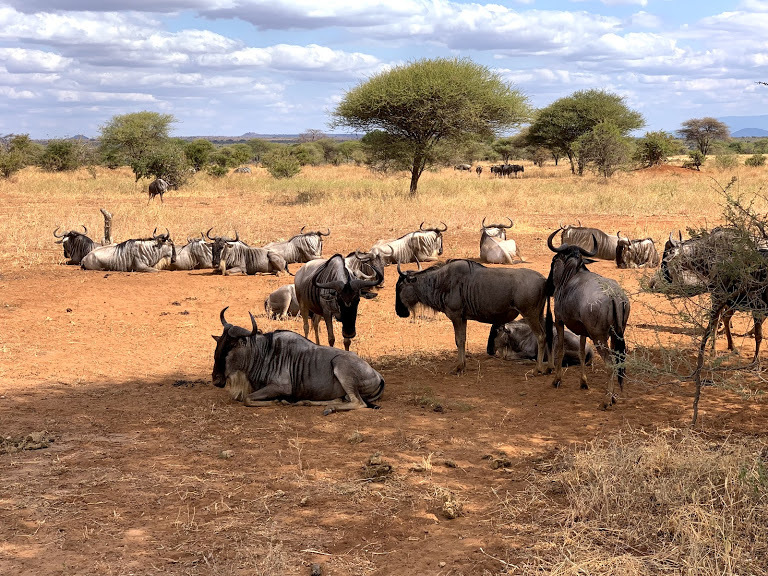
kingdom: Animalia
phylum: Chordata
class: Mammalia
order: Artiodactyla
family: Bovidae
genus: Connochaetes
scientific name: Connochaetes taurinus
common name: Blue wildebeest
